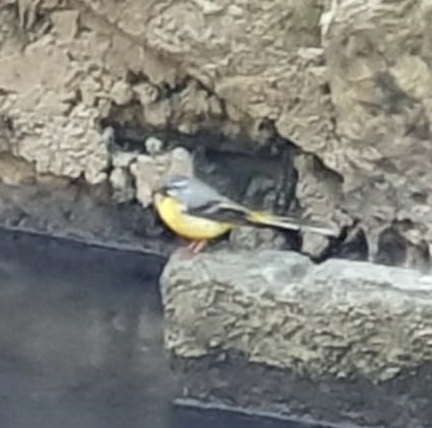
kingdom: Animalia
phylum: Chordata
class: Aves
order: Passeriformes
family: Motacillidae
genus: Motacilla
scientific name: Motacilla cinerea
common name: Grey wagtail
